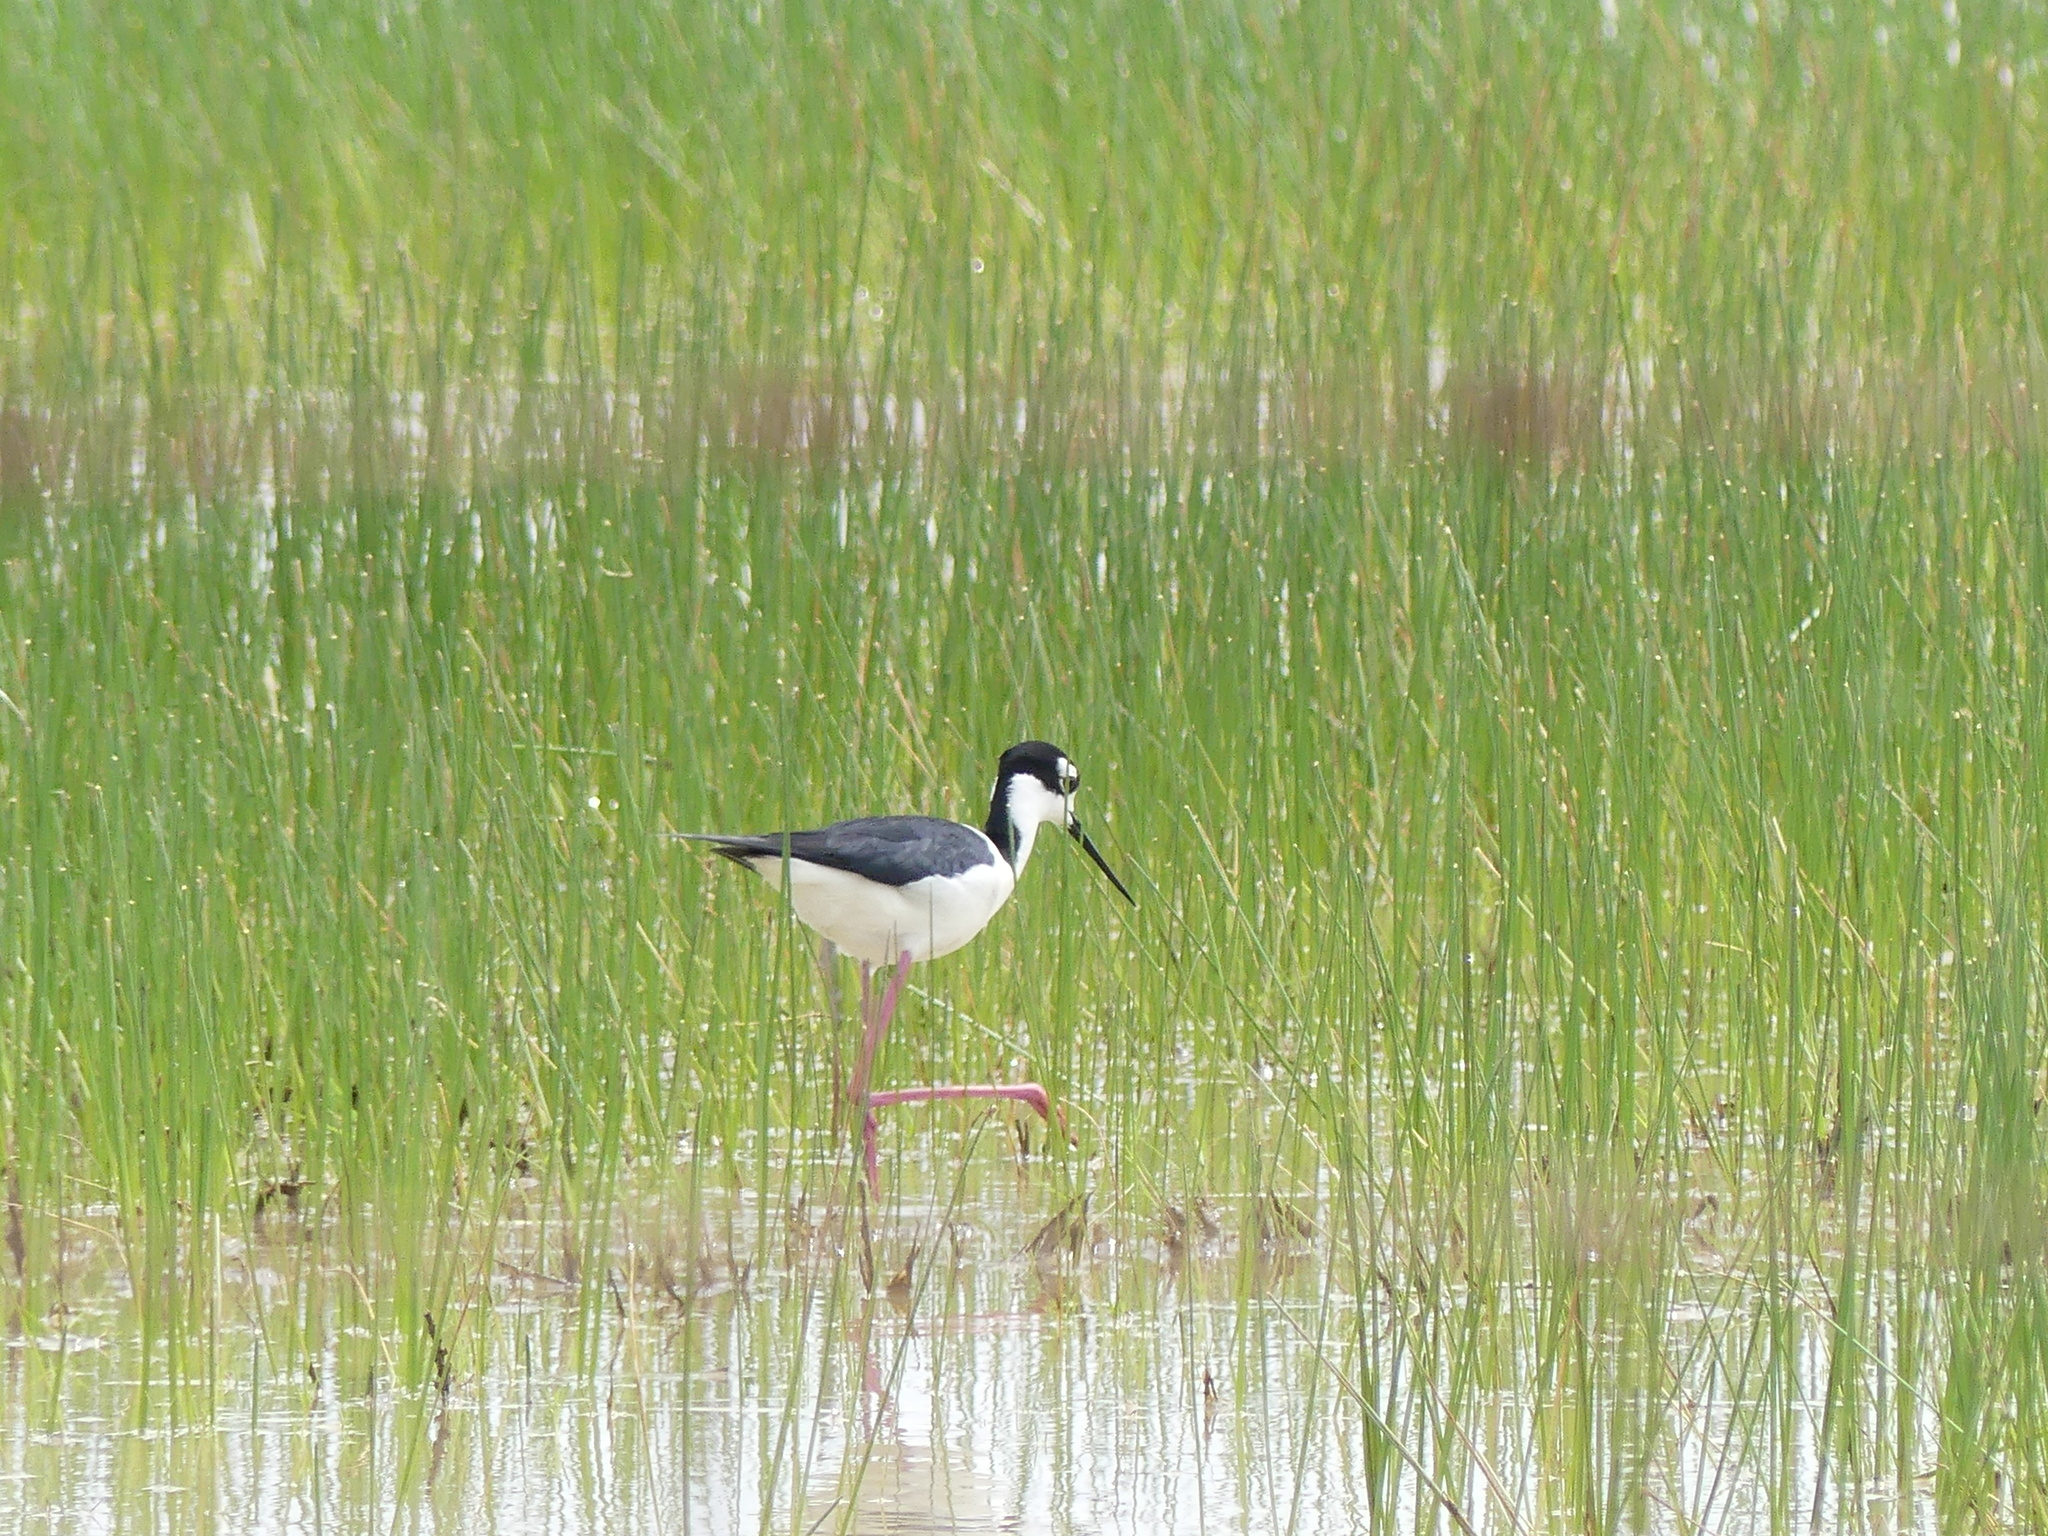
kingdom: Animalia
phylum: Chordata
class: Aves
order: Charadriiformes
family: Recurvirostridae
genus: Himantopus
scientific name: Himantopus mexicanus
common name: Black-necked stilt
